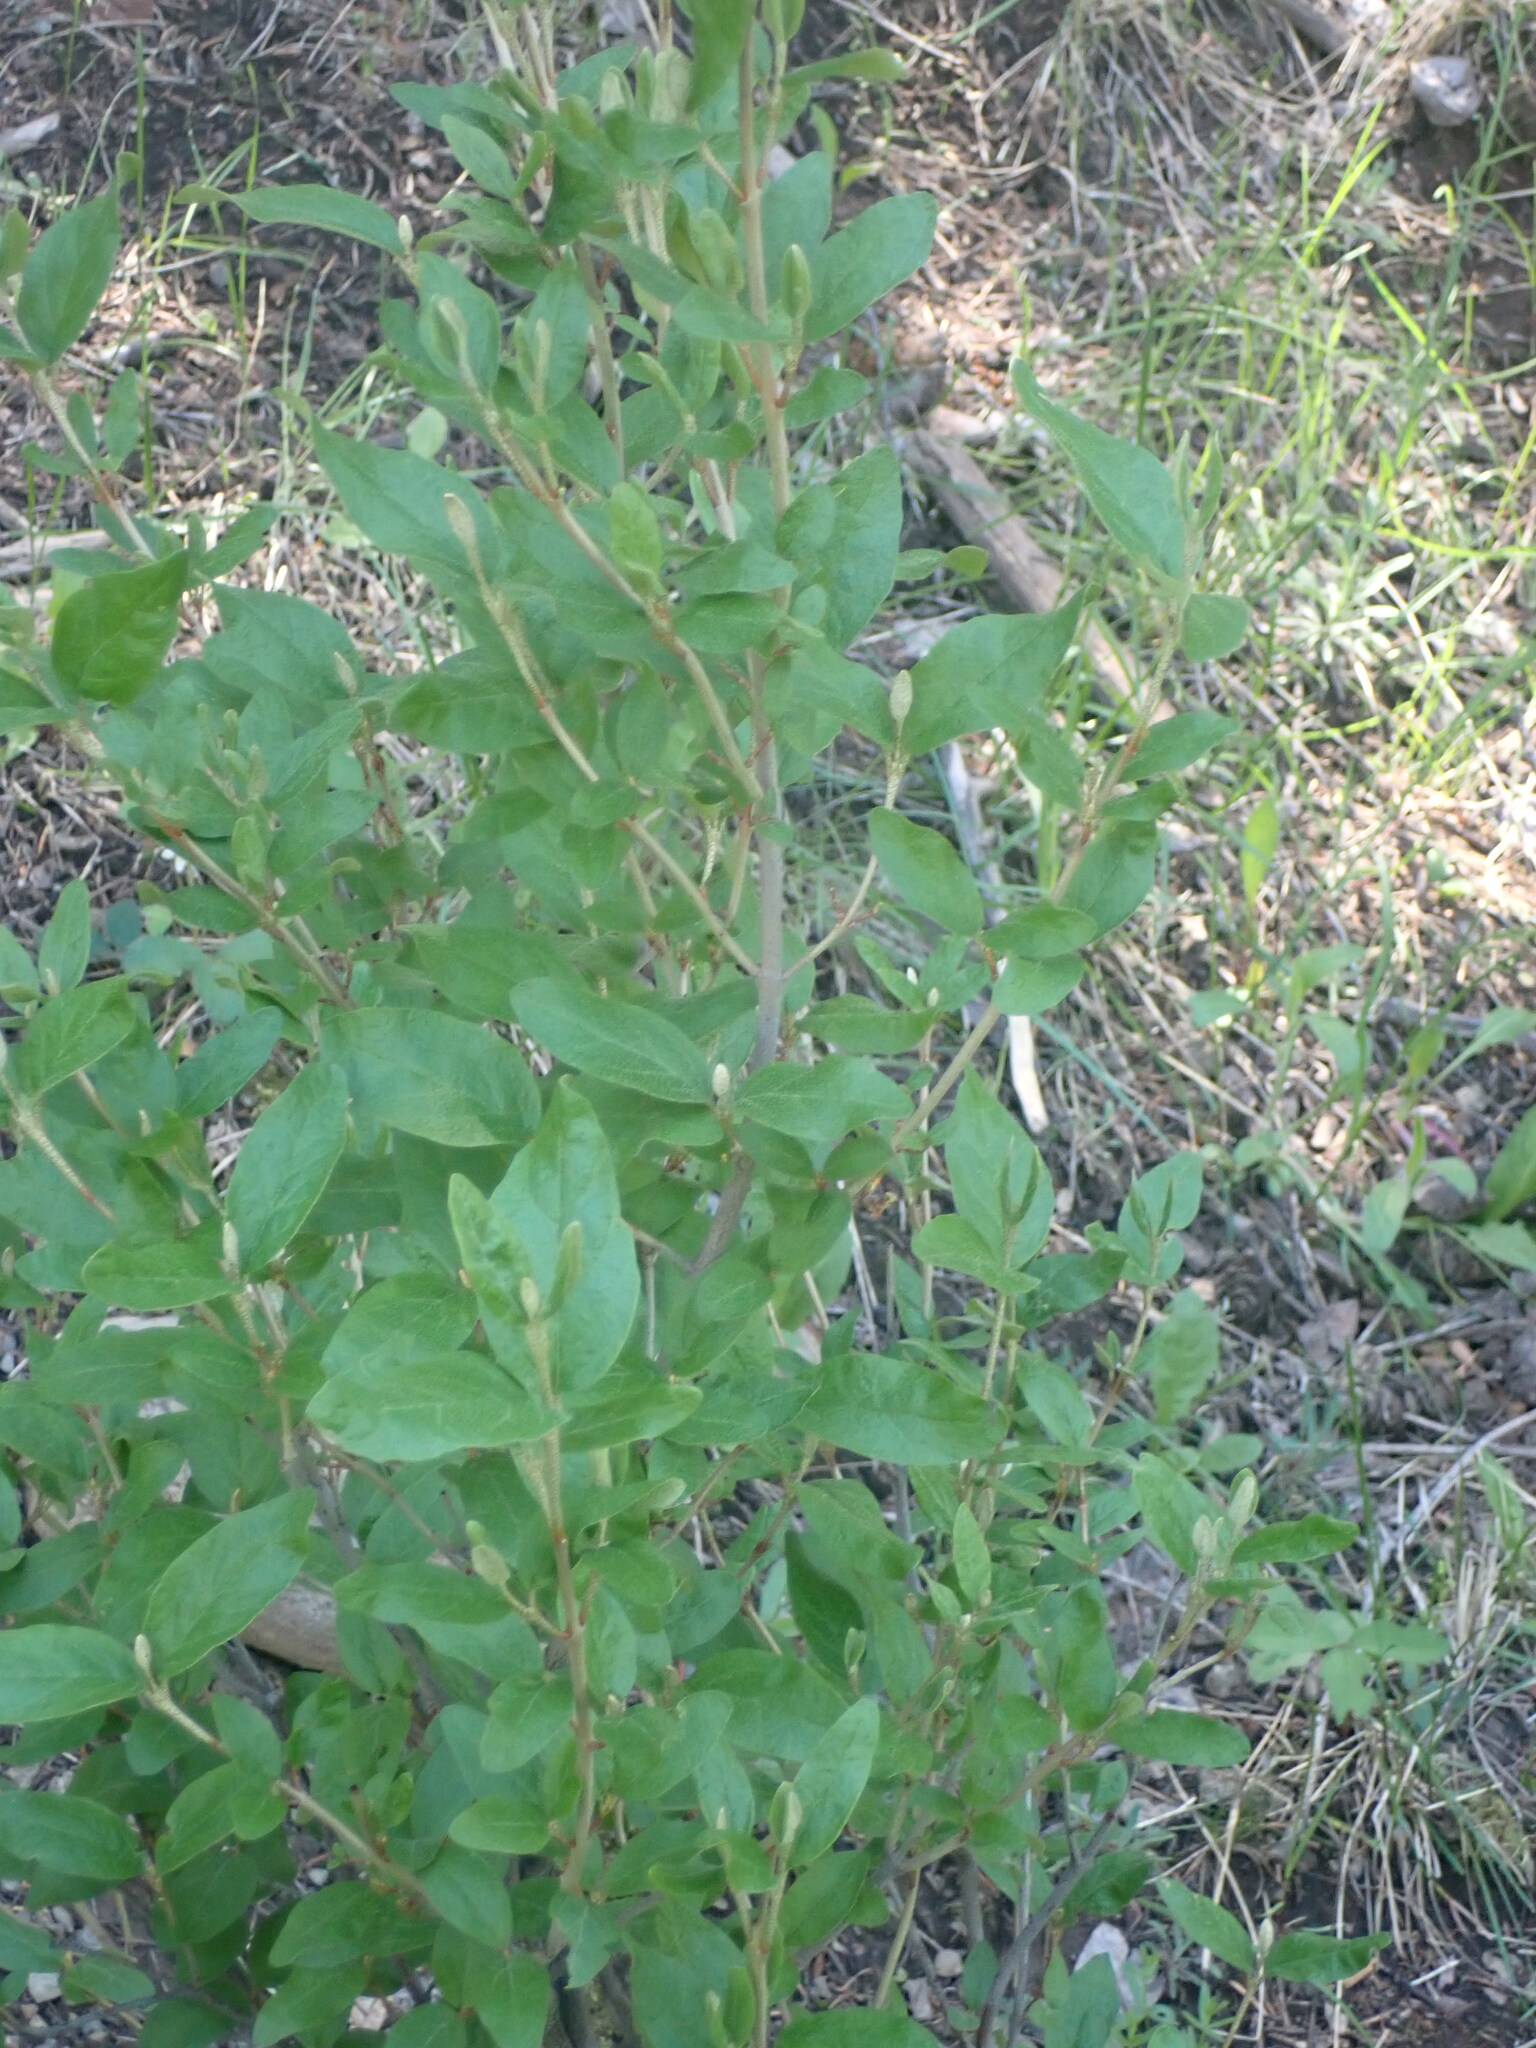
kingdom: Plantae
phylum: Tracheophyta
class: Magnoliopsida
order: Rosales
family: Elaeagnaceae
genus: Shepherdia
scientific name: Shepherdia canadensis
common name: Soapberry
